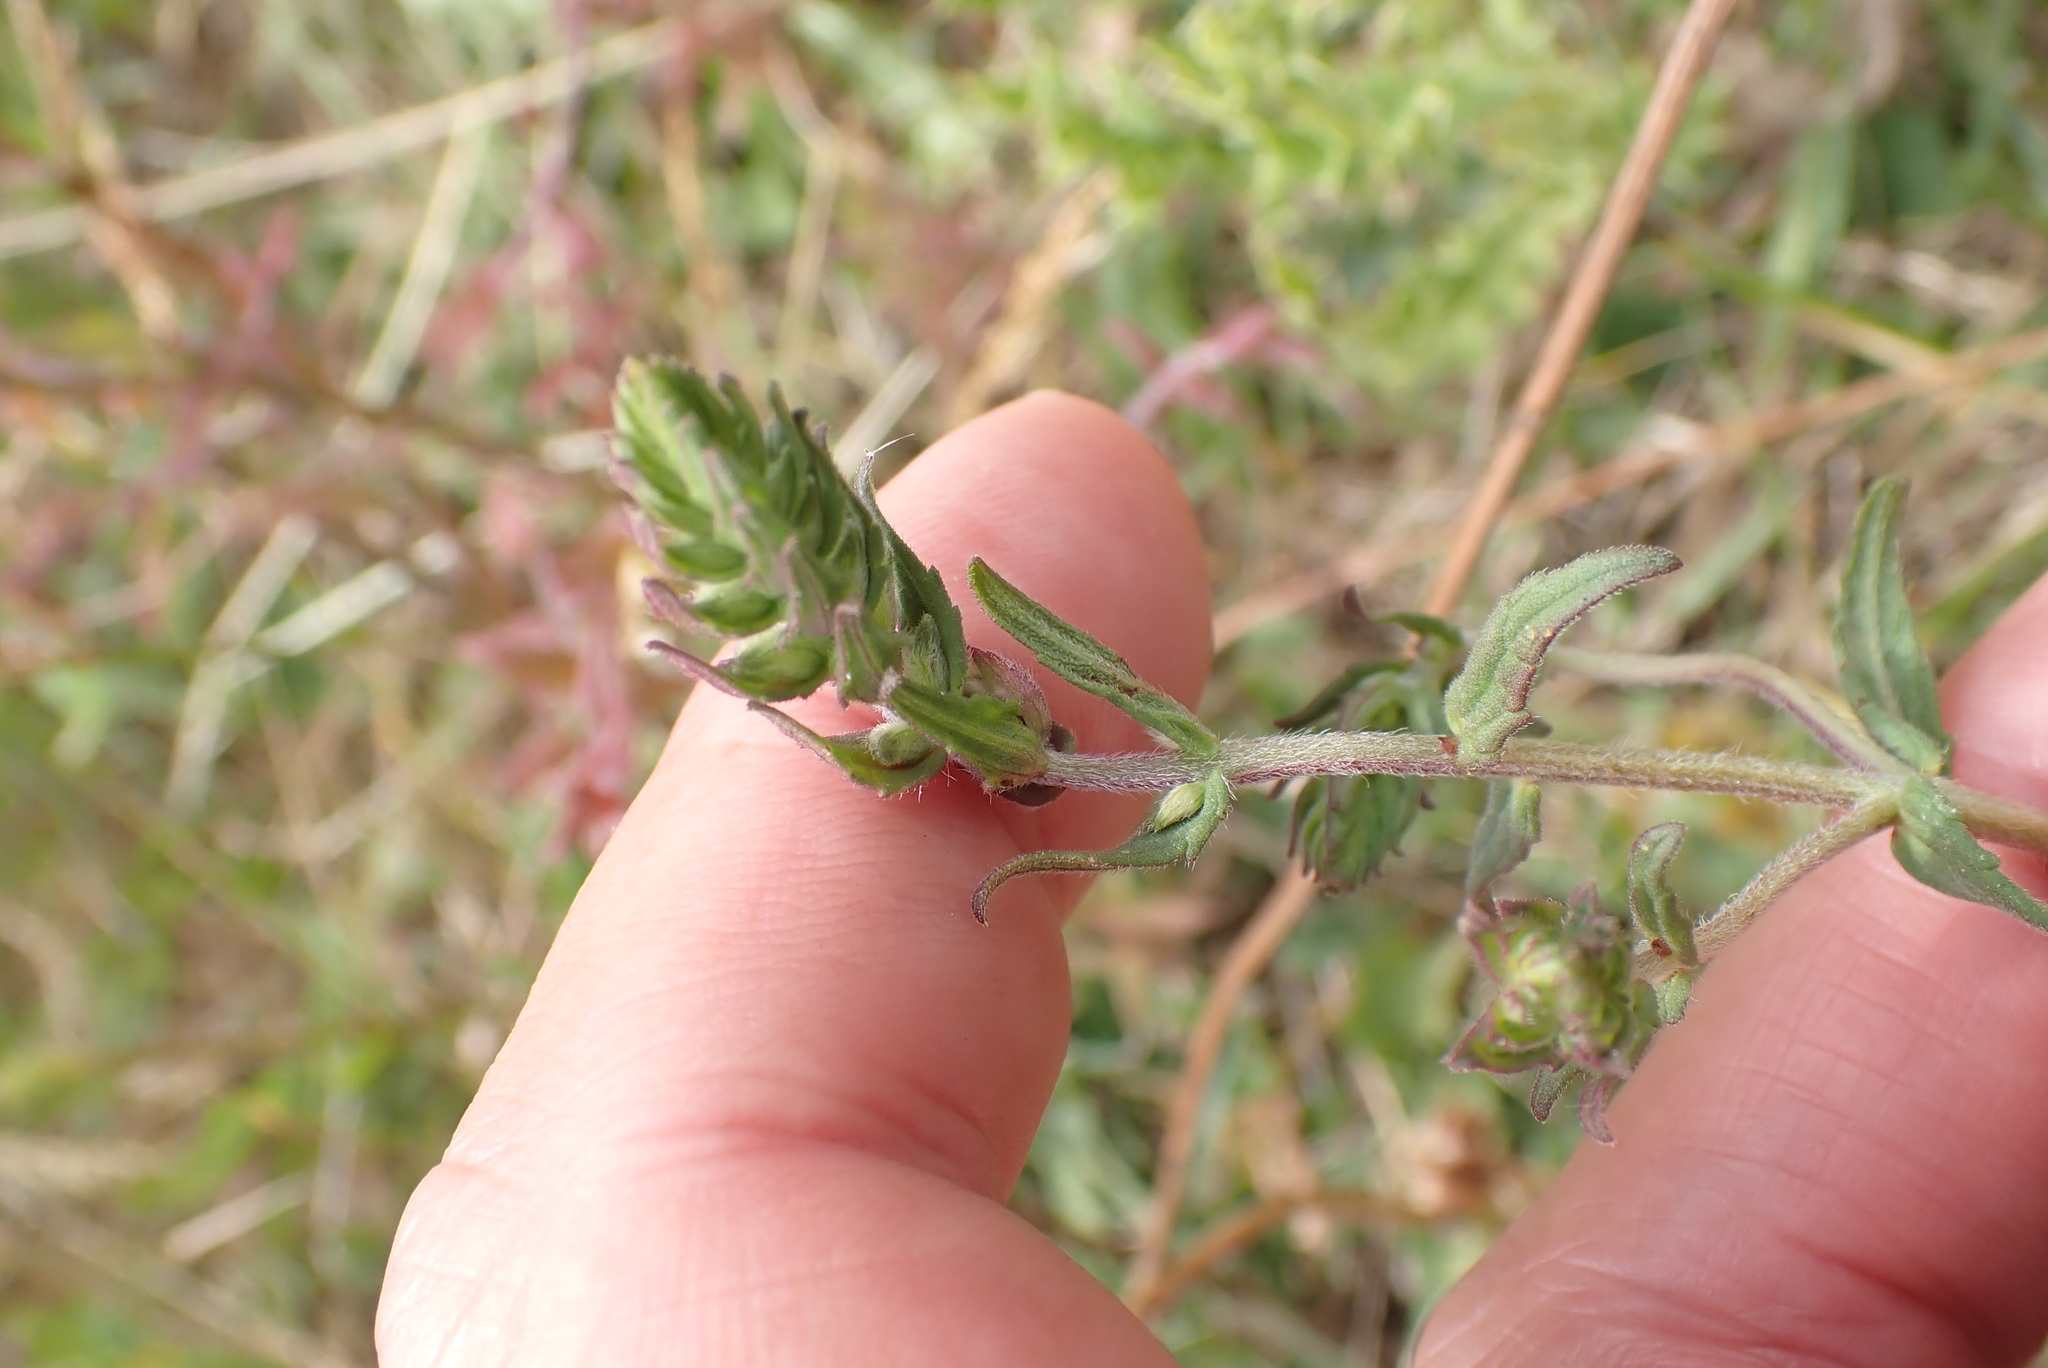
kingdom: Plantae
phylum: Tracheophyta
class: Magnoliopsida
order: Lamiales
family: Orobanchaceae
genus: Odontites
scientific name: Odontites vulgaris
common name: Broomrape
